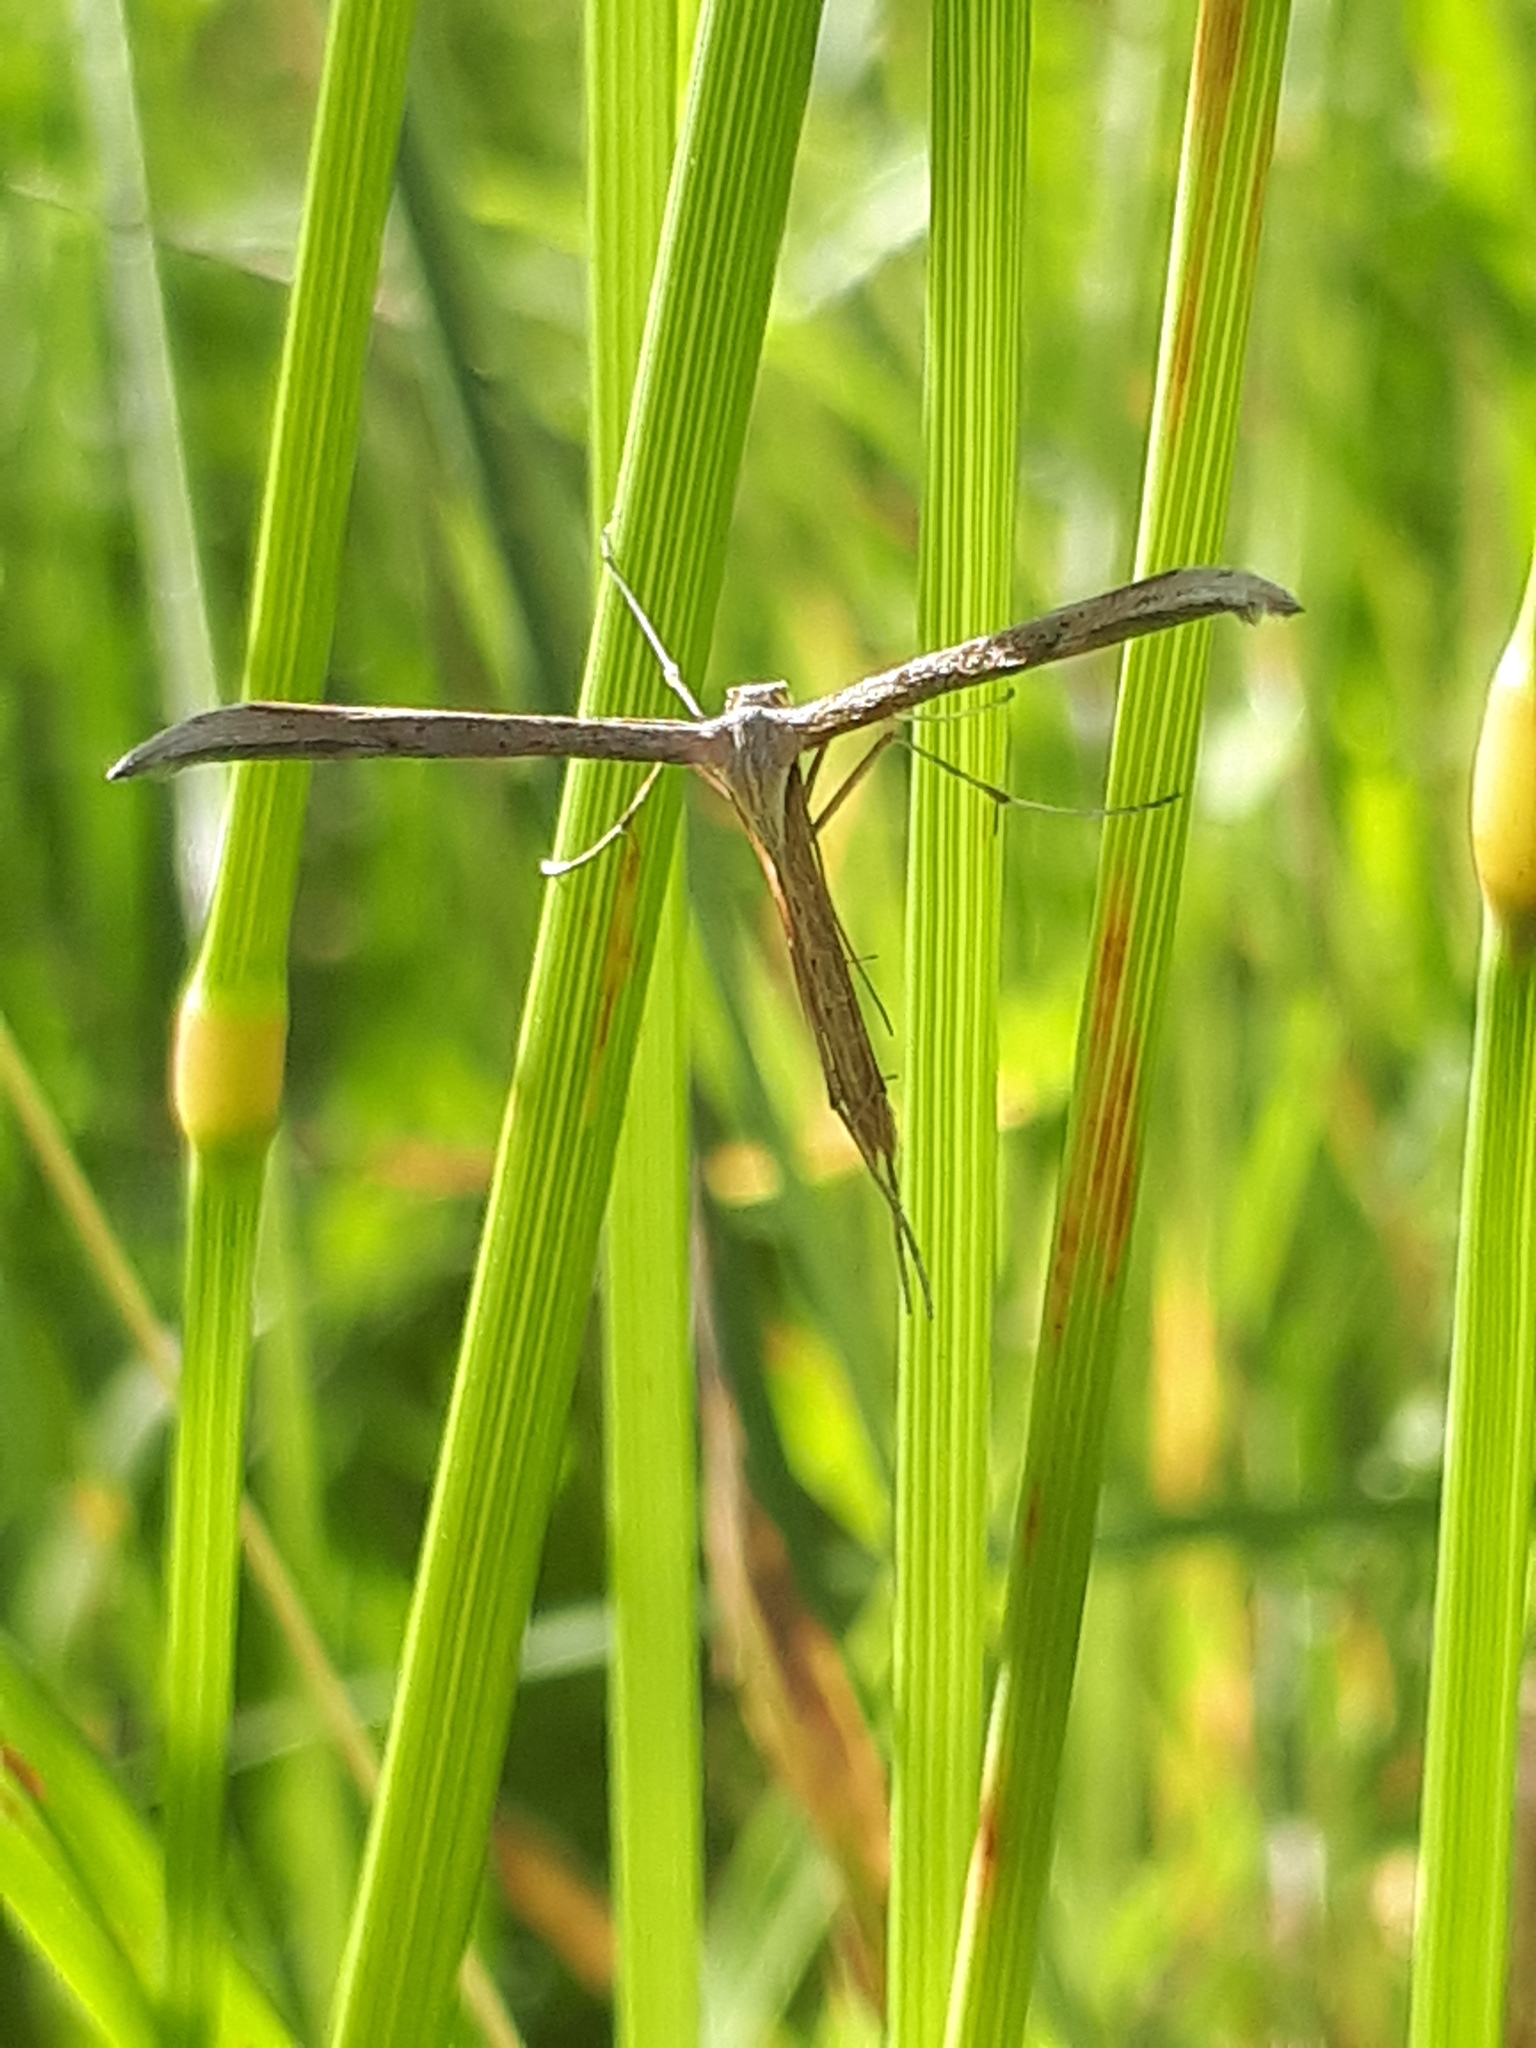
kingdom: Animalia
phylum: Arthropoda
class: Insecta
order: Lepidoptera
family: Pterophoridae
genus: Emmelina
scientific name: Emmelina monodactyla
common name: Common plume
